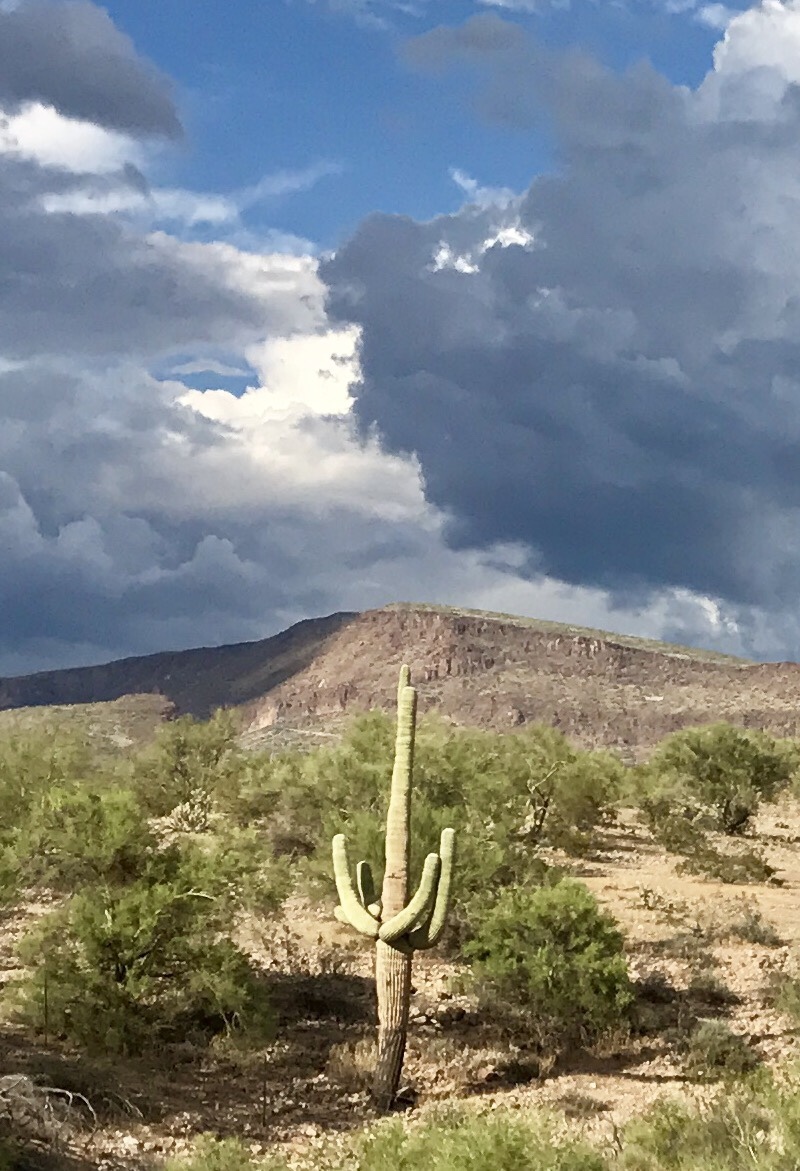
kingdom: Plantae
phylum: Tracheophyta
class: Magnoliopsida
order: Caryophyllales
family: Cactaceae
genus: Carnegiea
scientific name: Carnegiea gigantea
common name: Saguaro
